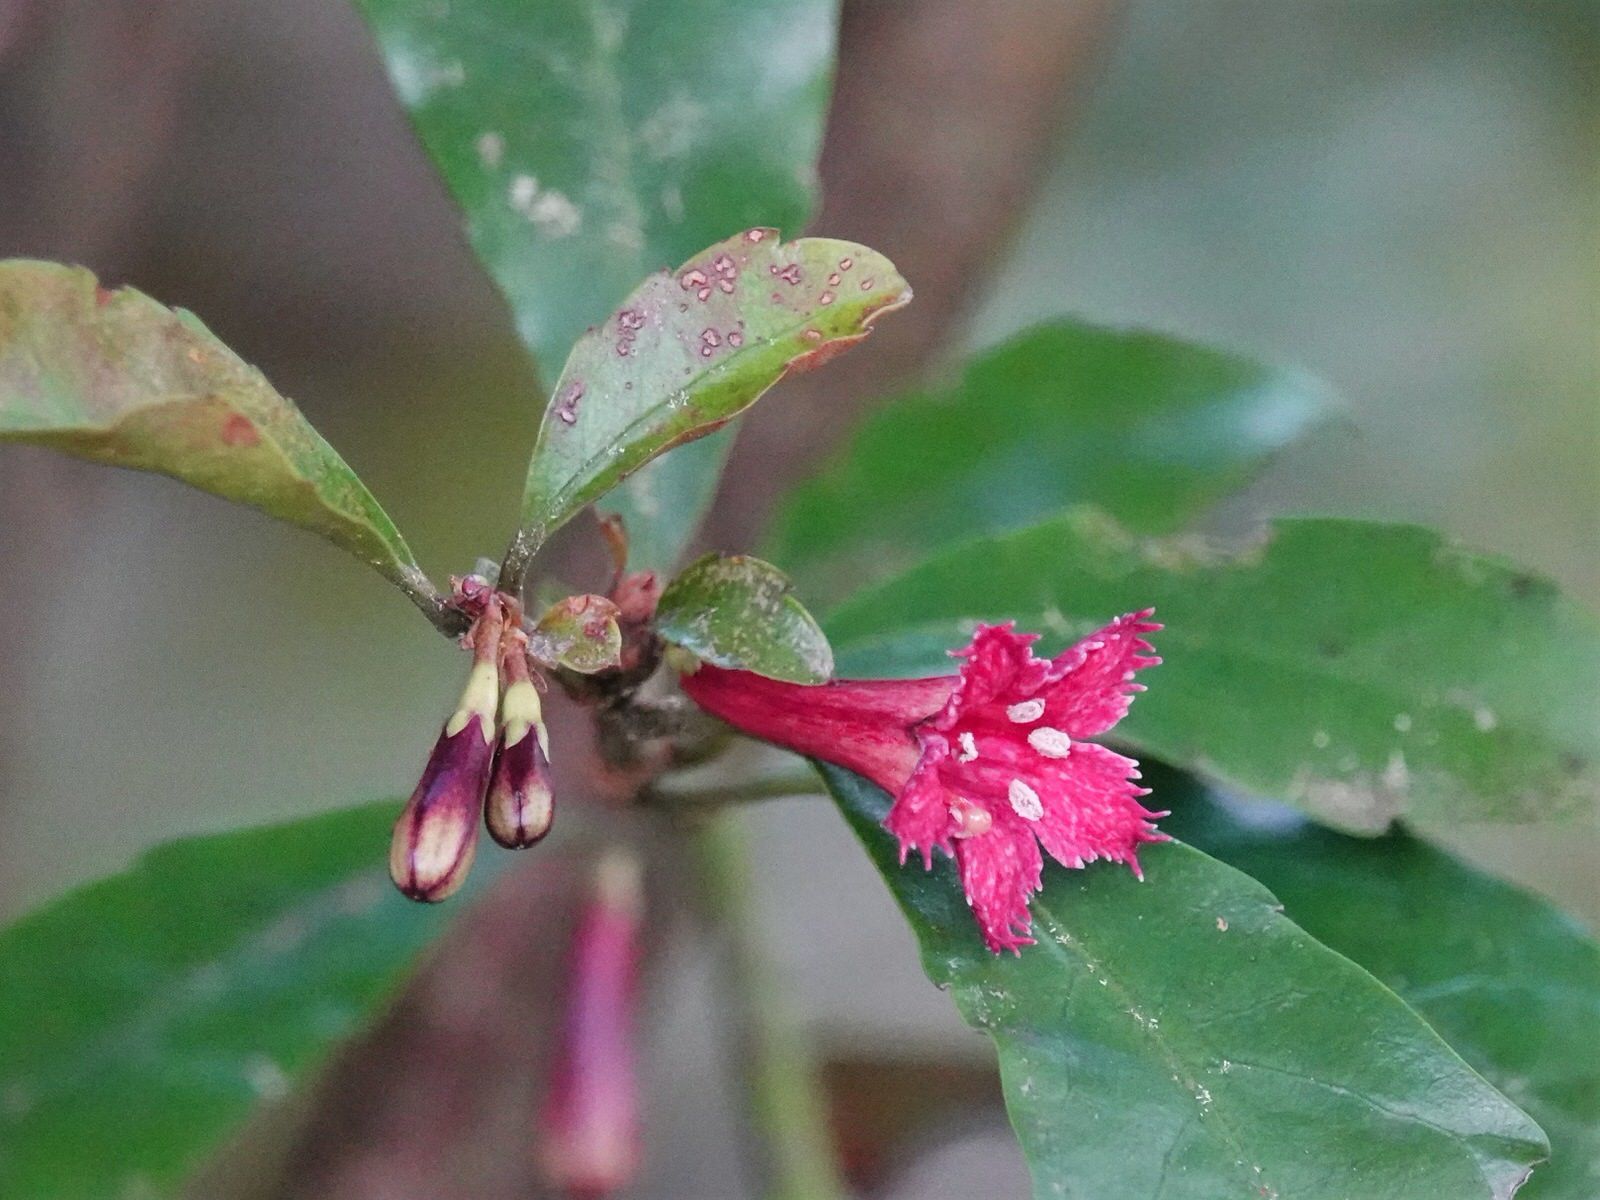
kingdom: Plantae
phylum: Tracheophyta
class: Magnoliopsida
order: Asterales
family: Alseuosmiaceae
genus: Alseuosmia
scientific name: Alseuosmia macrophylla
